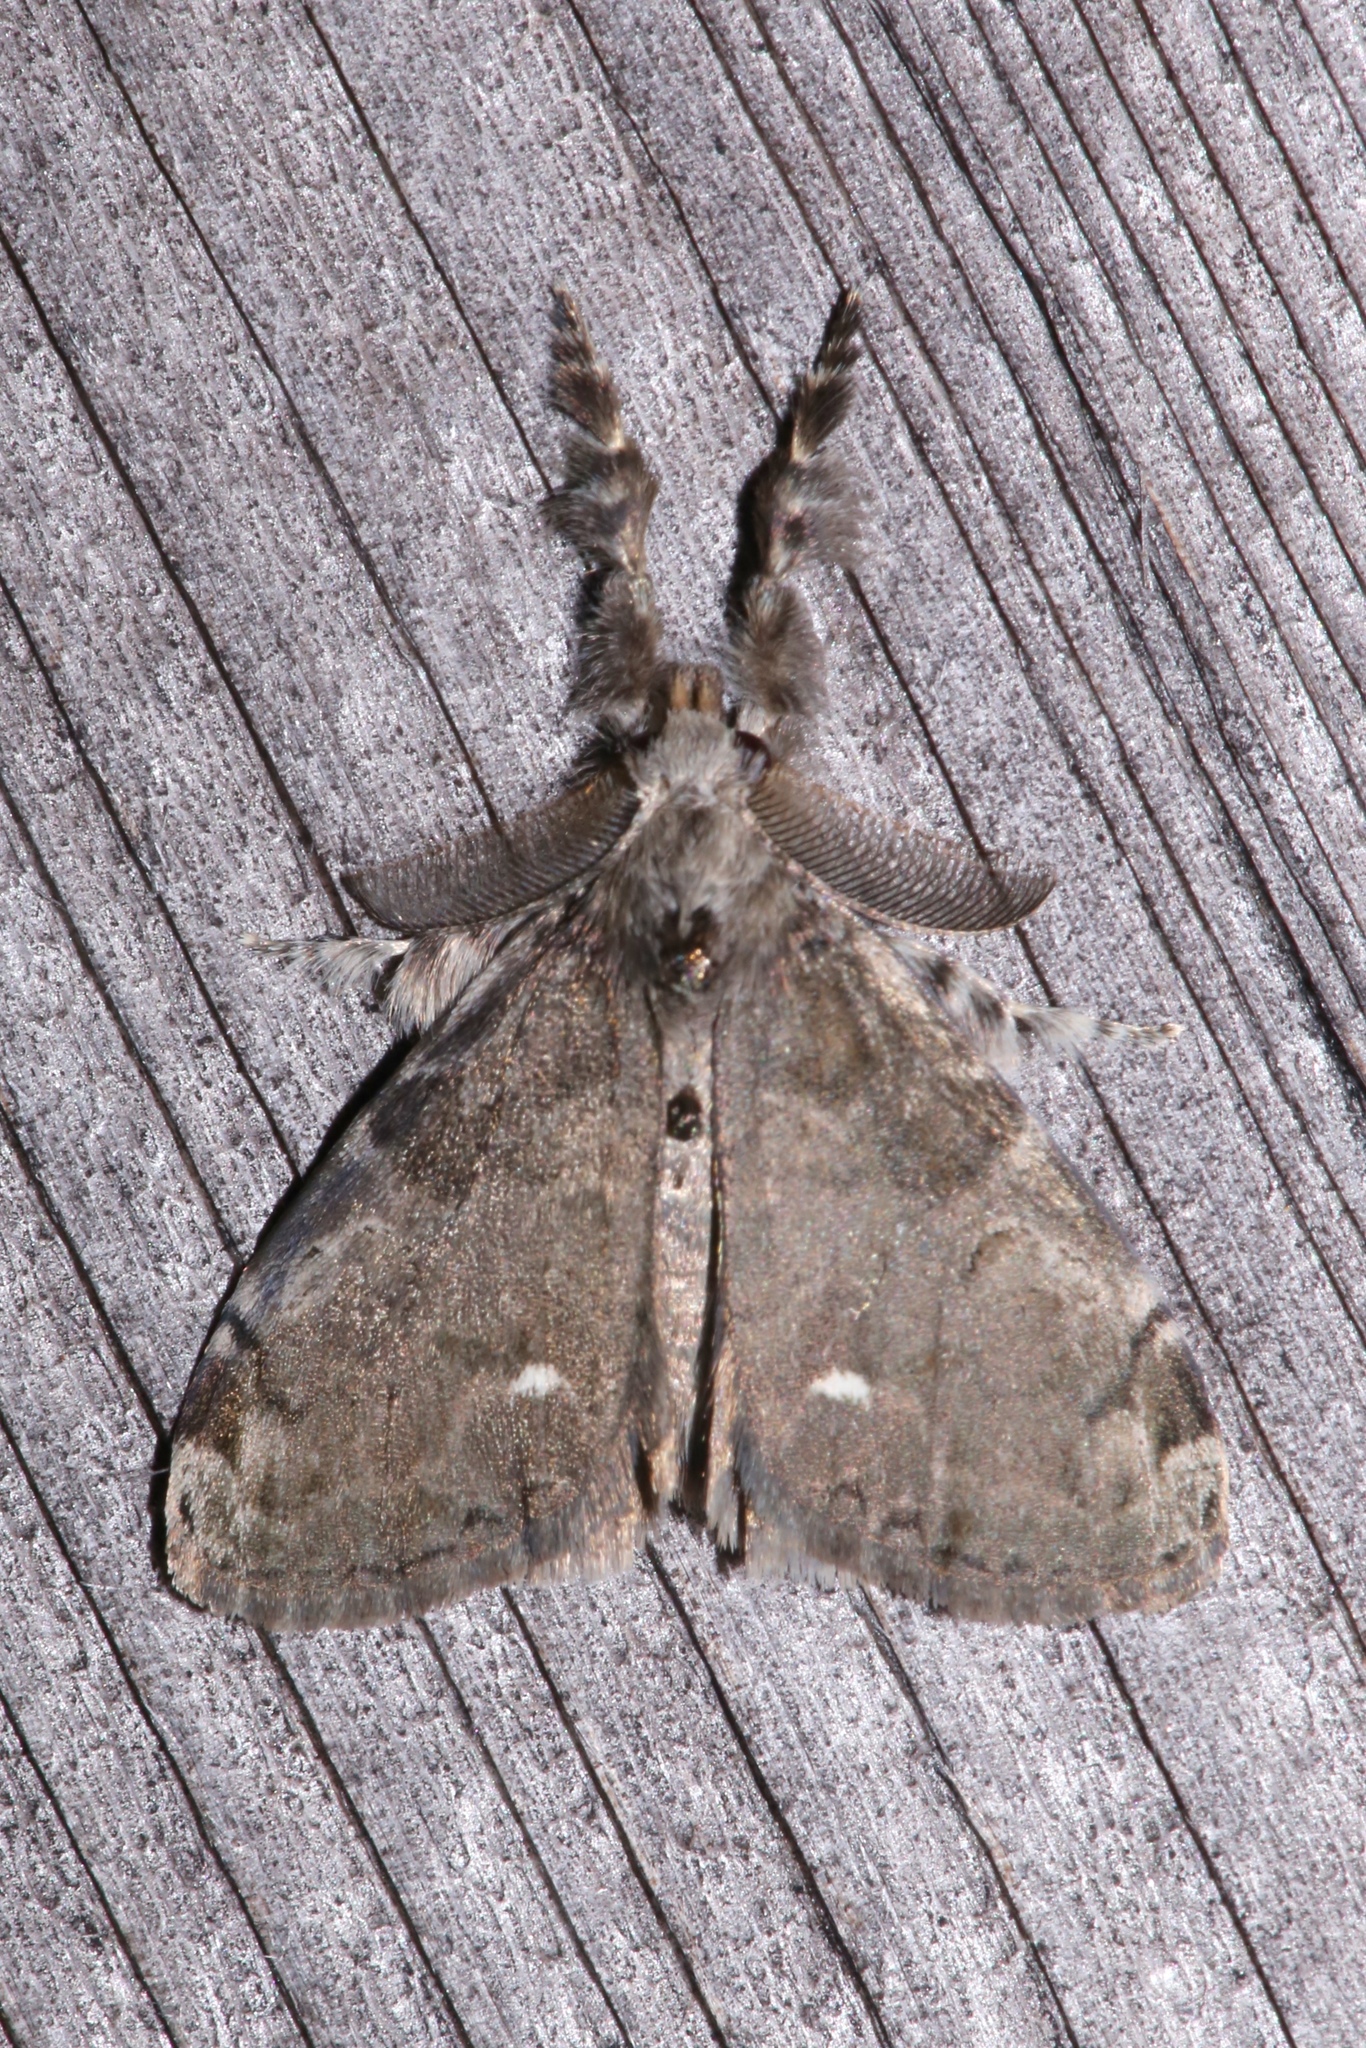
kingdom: Animalia
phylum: Arthropoda
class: Insecta
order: Lepidoptera
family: Erebidae
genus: Orgyia
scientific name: Orgyia leucostigma
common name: White-marked tussock moth
